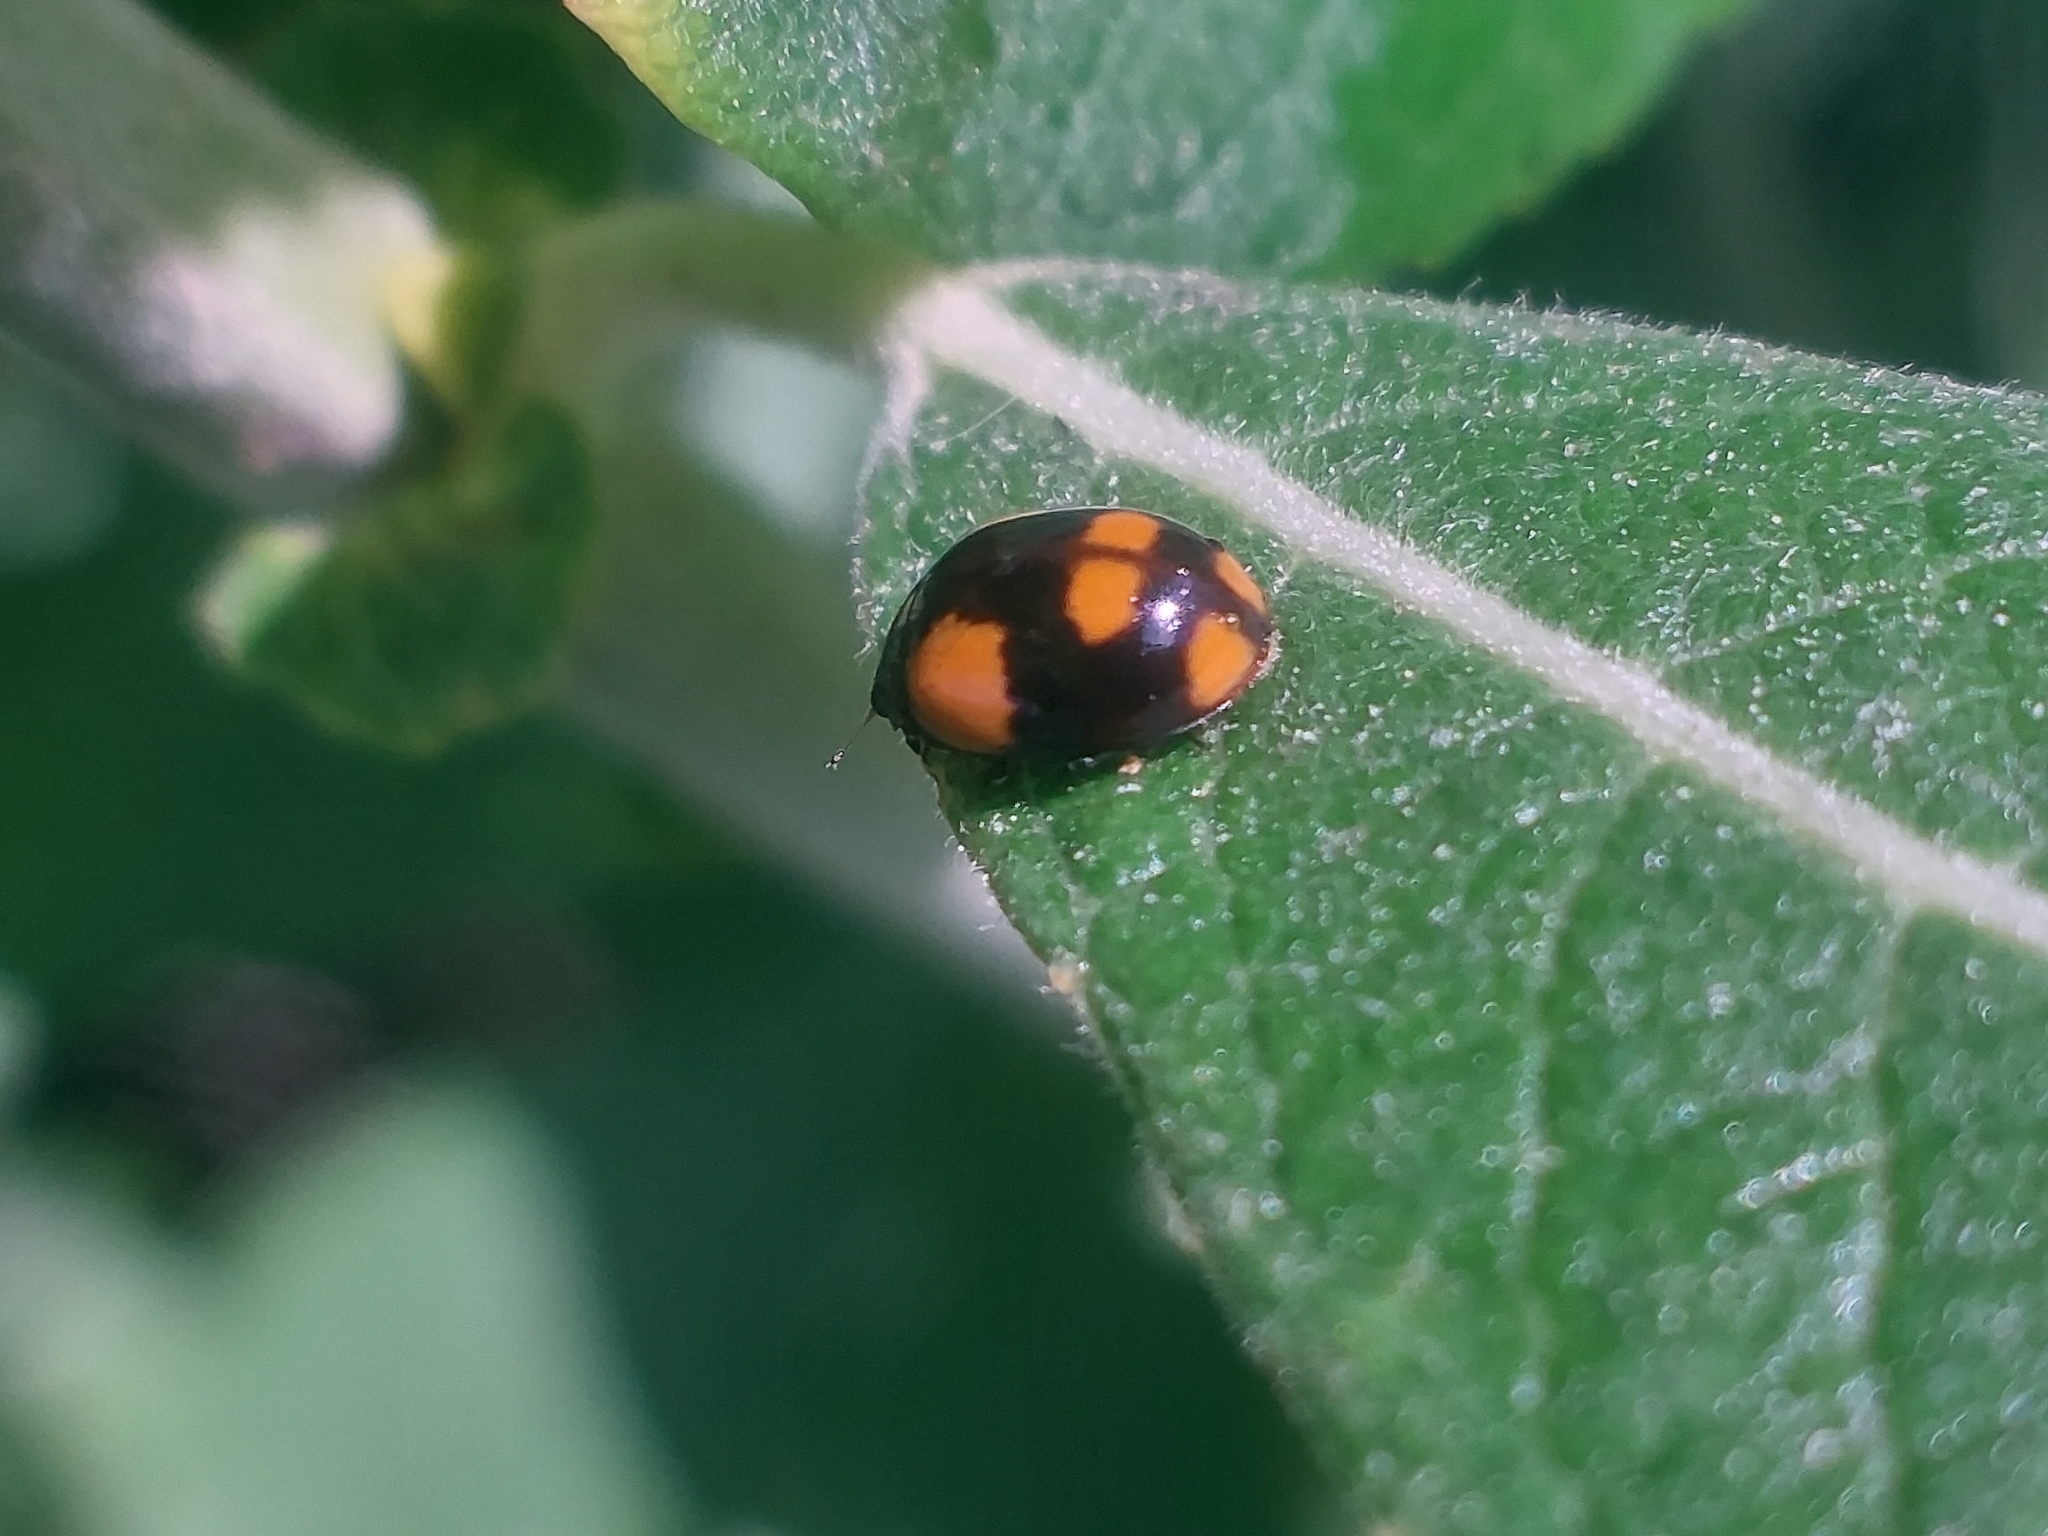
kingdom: Animalia
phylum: Arthropoda
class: Insecta
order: Coleoptera
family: Coccinellidae
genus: Adalia
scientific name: Adalia bipunctata
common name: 2-spot ladybird
